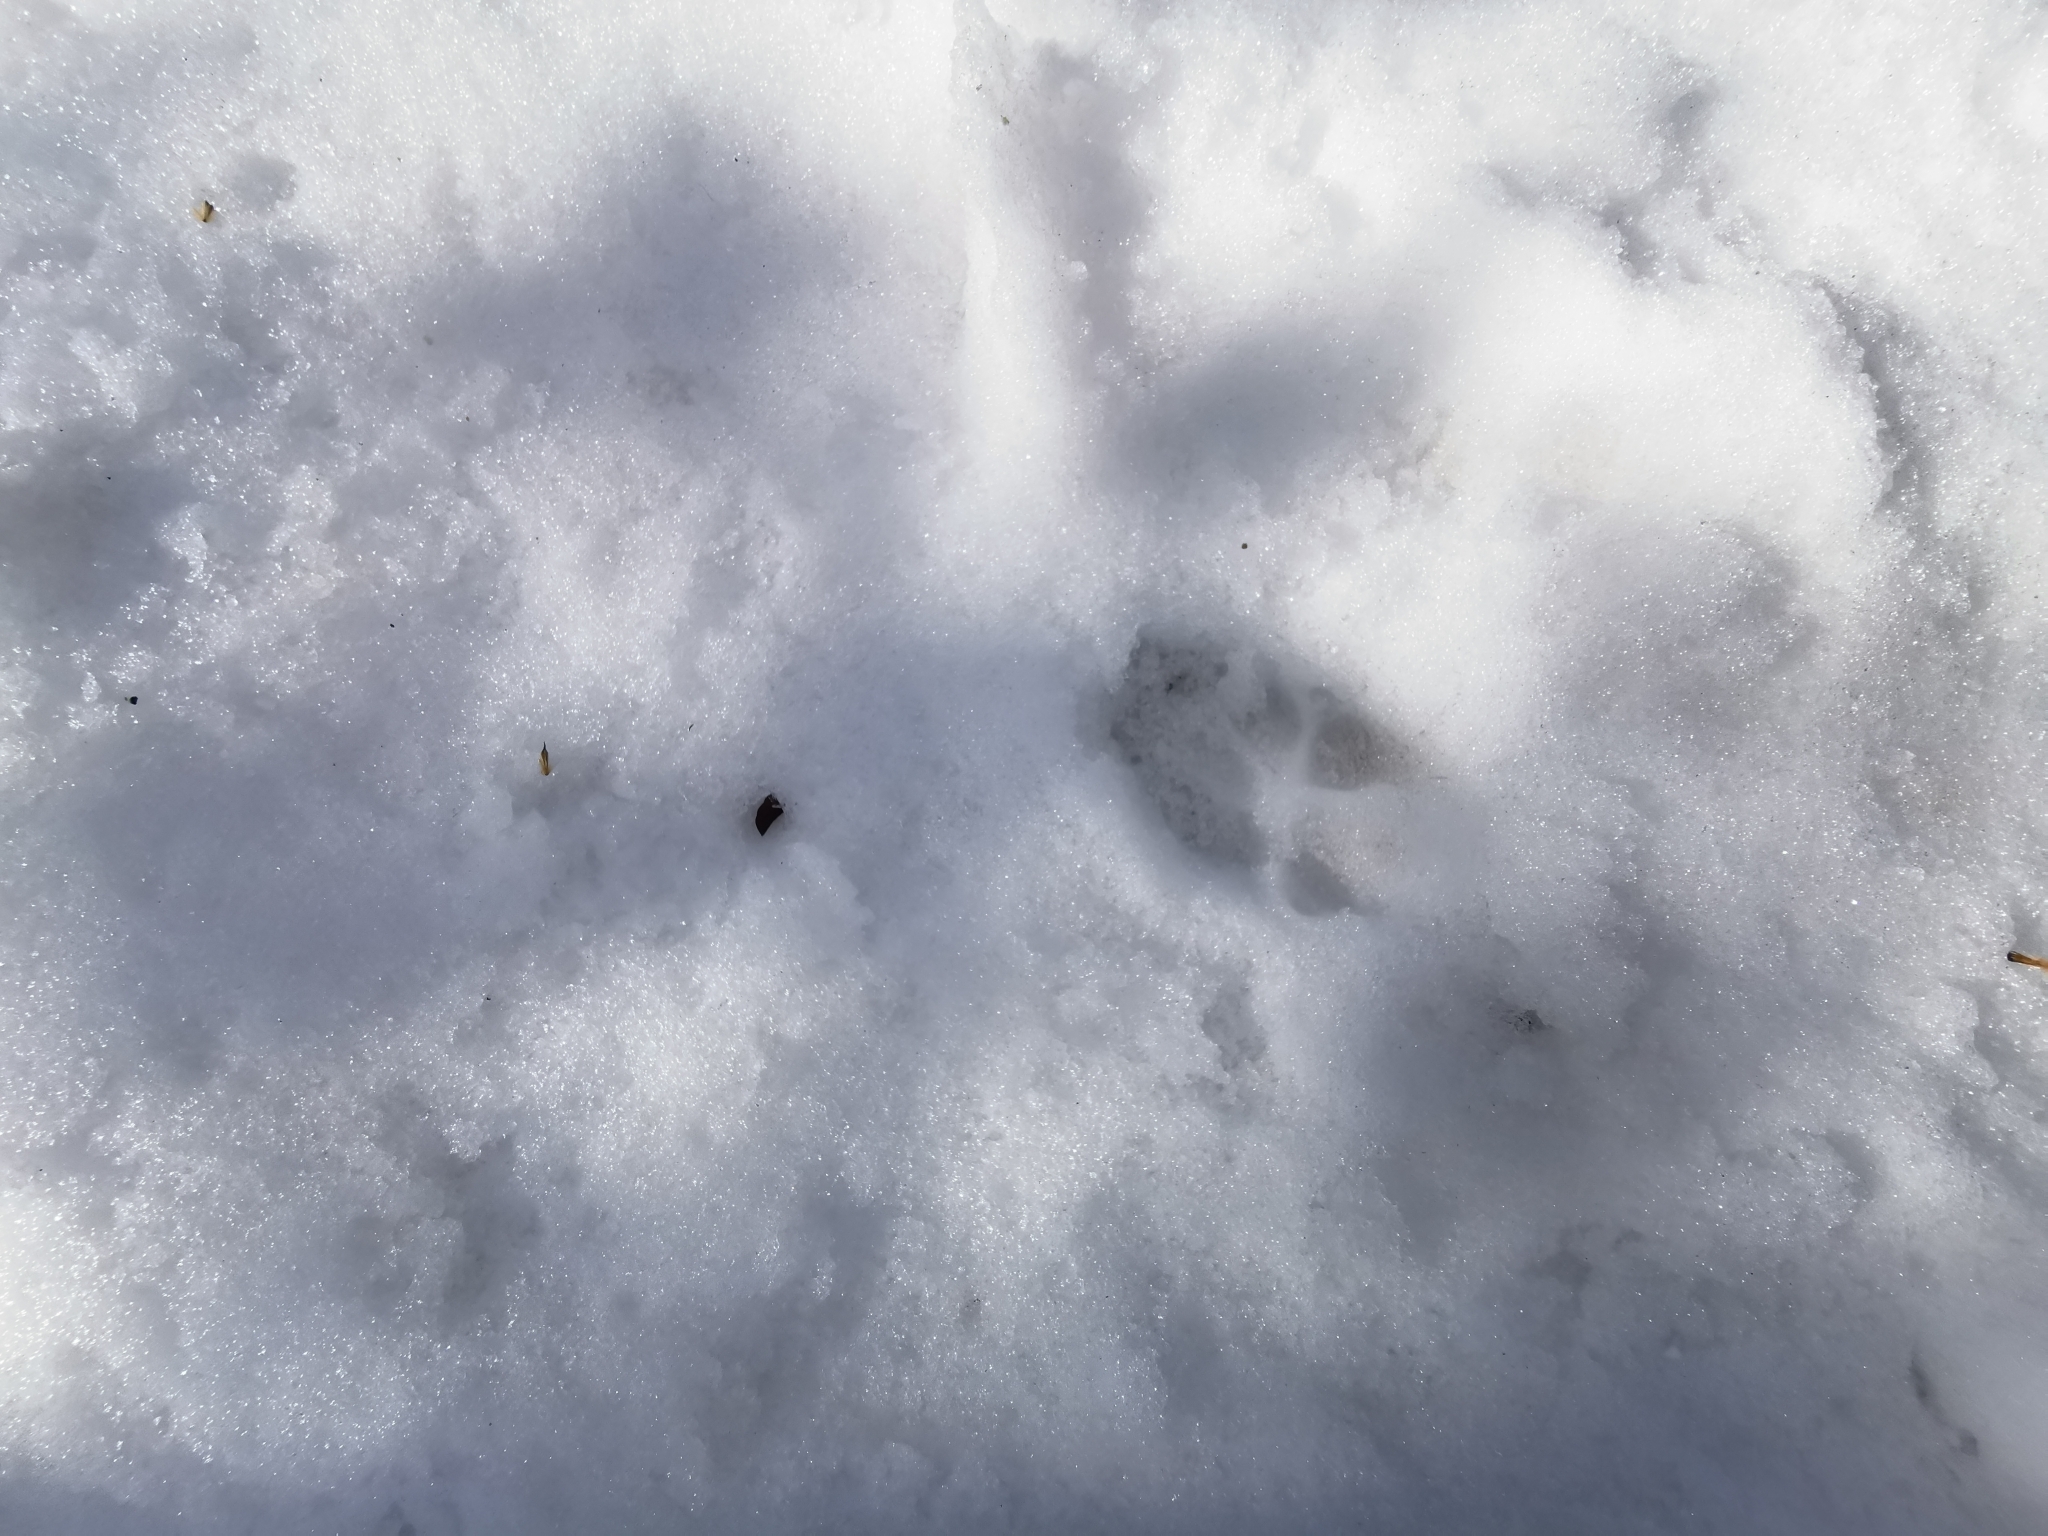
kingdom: Animalia
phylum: Chordata
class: Mammalia
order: Artiodactyla
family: Suidae
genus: Sus
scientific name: Sus scrofa
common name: Wild boar
